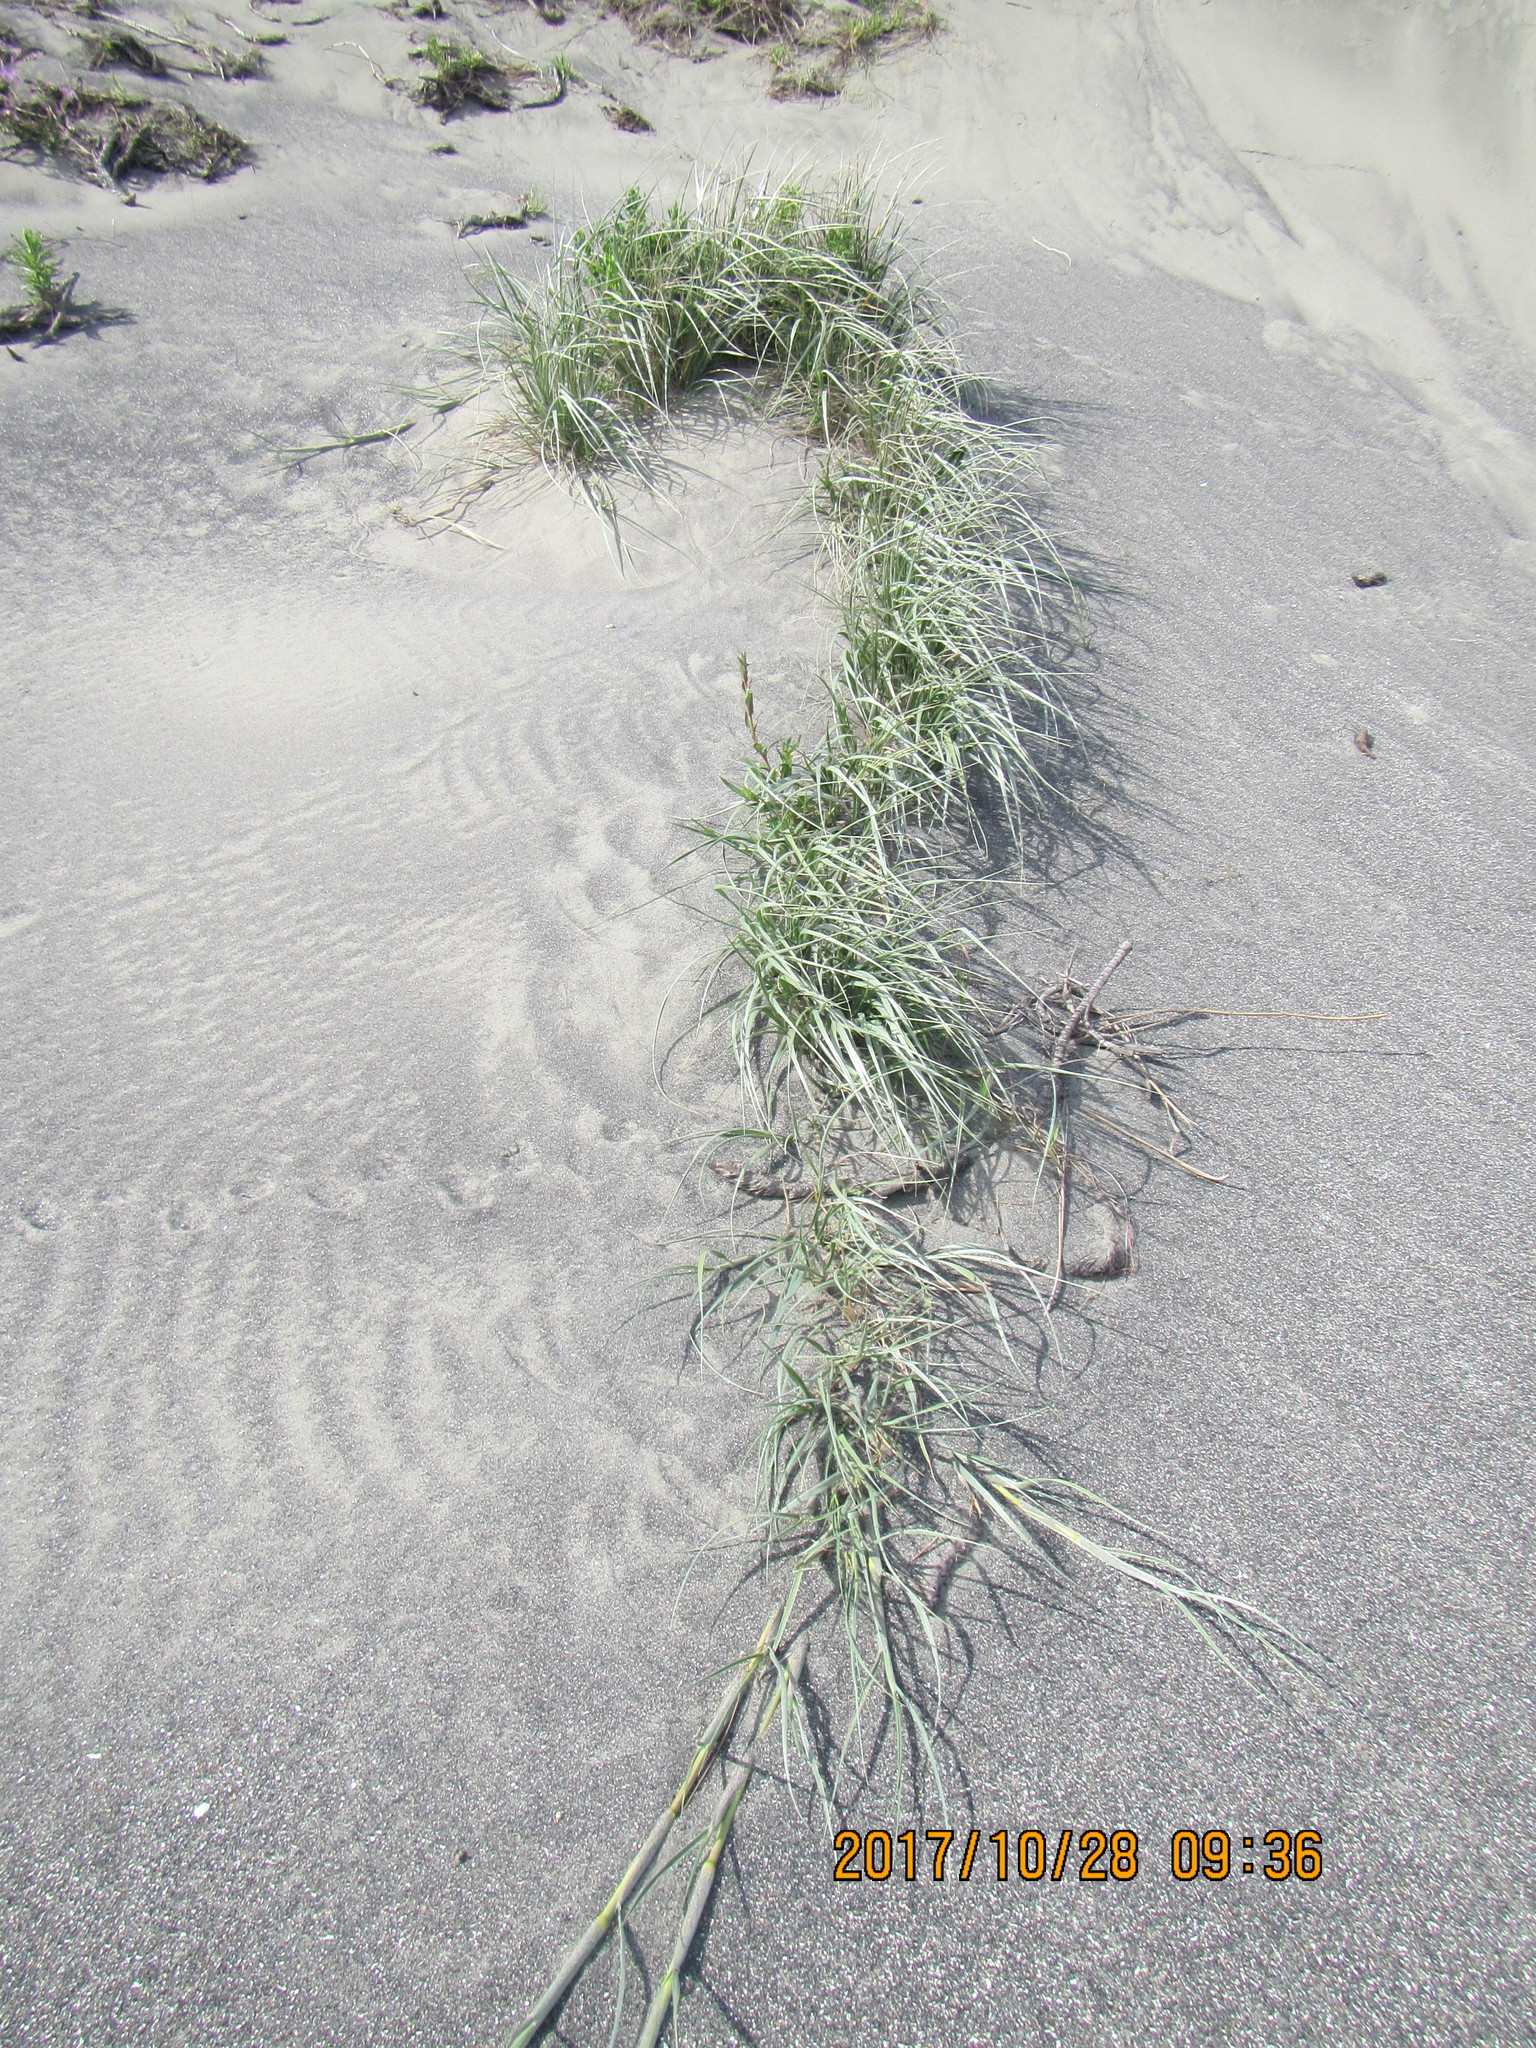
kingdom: Plantae
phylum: Tracheophyta
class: Liliopsida
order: Poales
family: Poaceae
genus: Spinifex
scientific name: Spinifex sericeus
